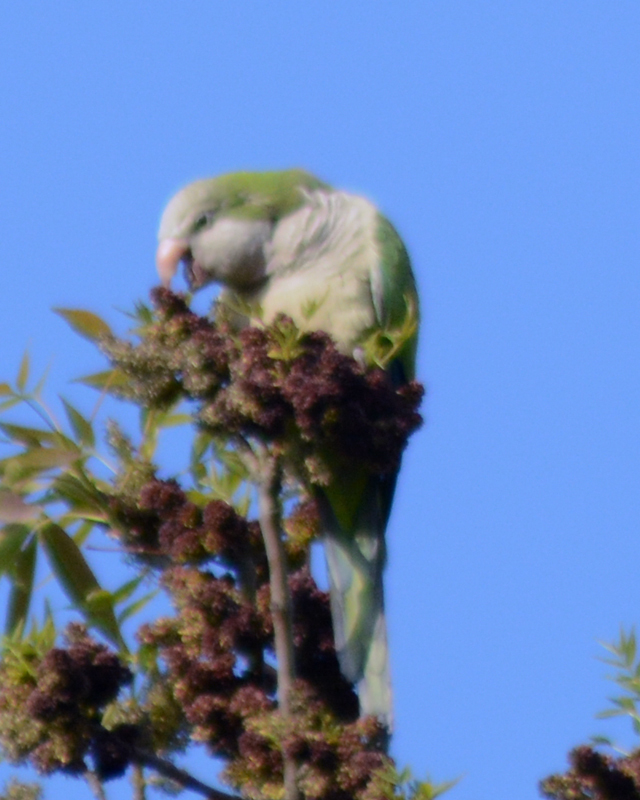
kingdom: Animalia
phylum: Chordata
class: Aves
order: Psittaciformes
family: Psittacidae
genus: Myiopsitta
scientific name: Myiopsitta monachus
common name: Monk parakeet
